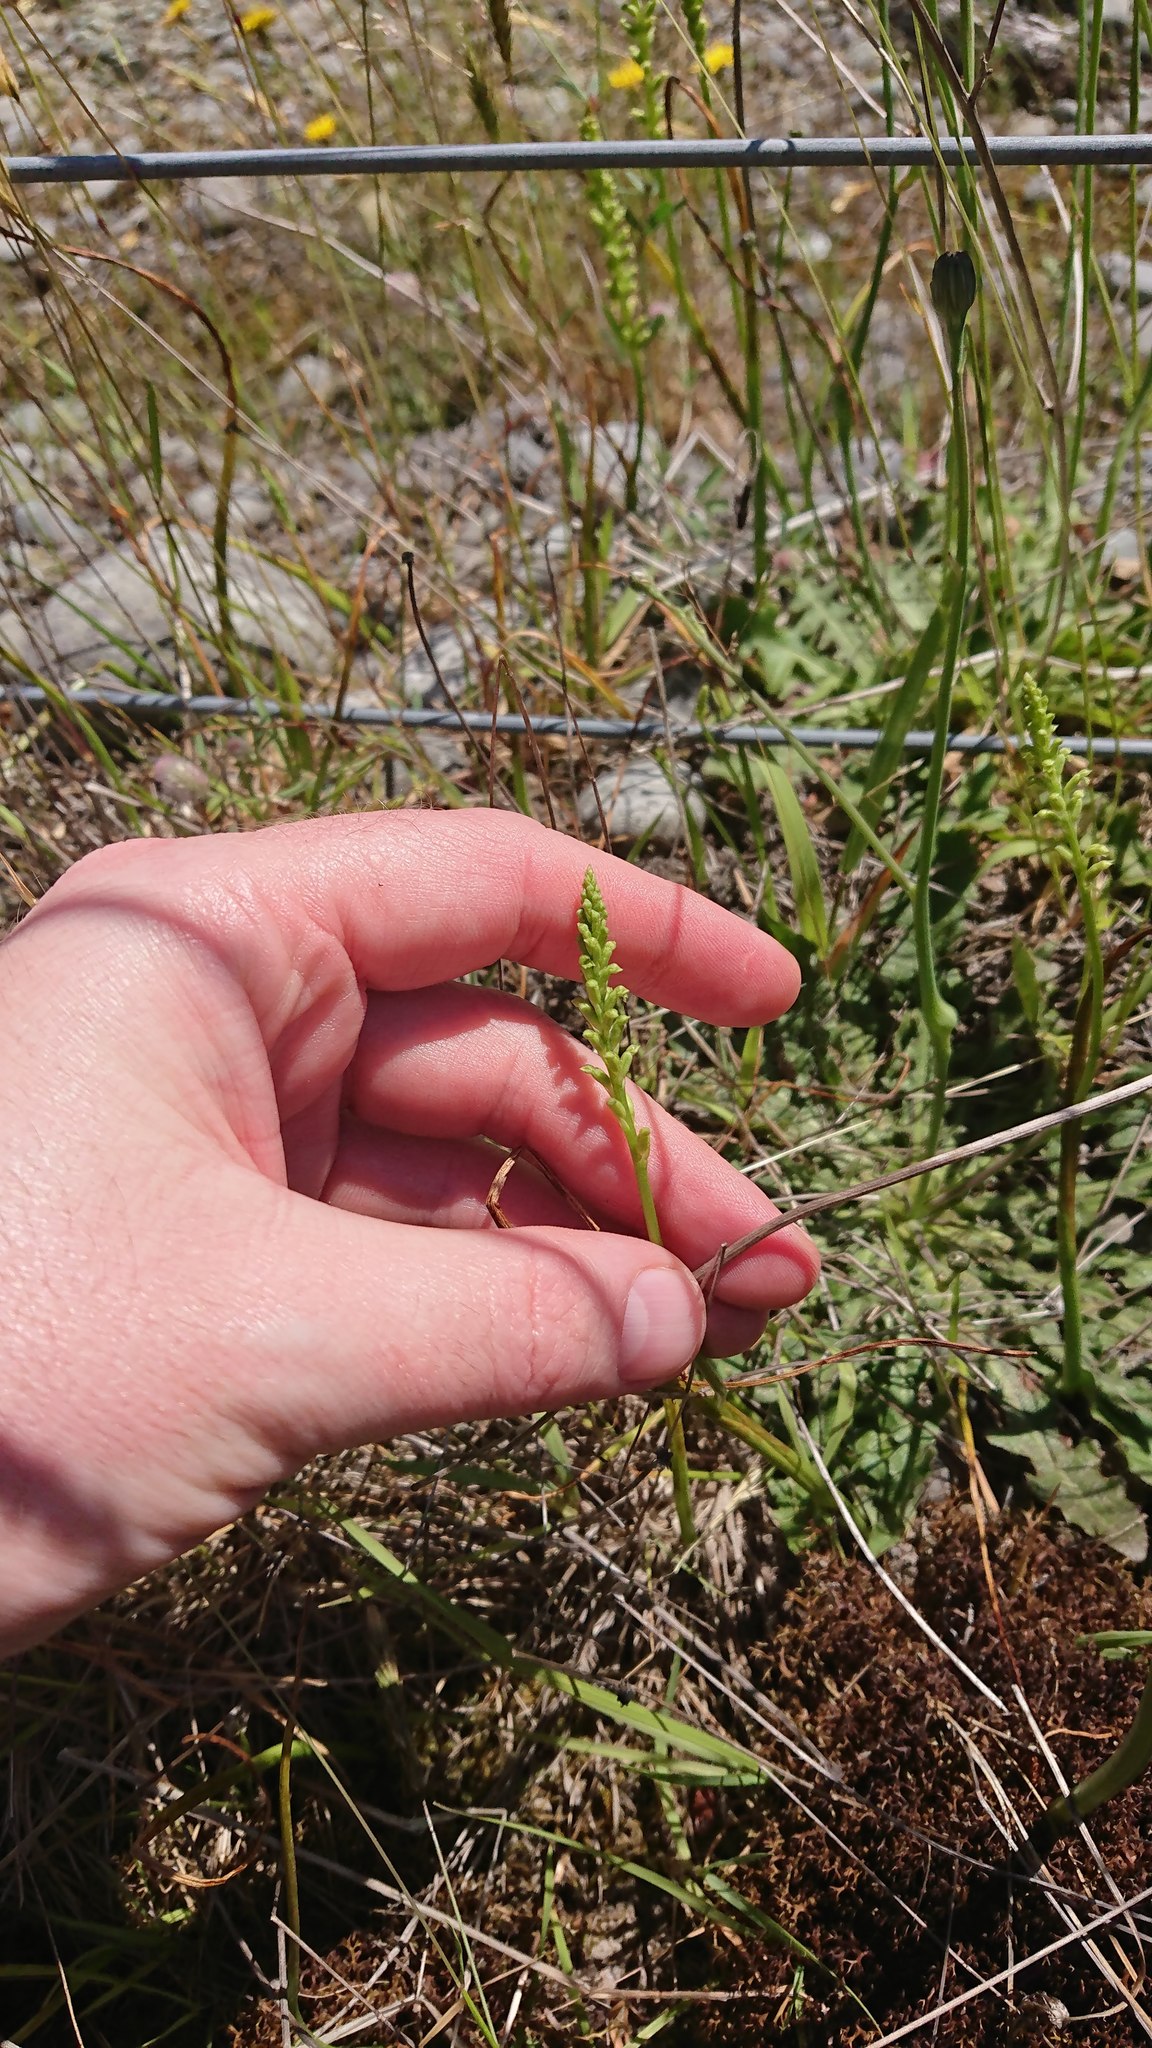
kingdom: Plantae
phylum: Tracheophyta
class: Liliopsida
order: Asparagales
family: Orchidaceae
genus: Microtis
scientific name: Microtis unifolia
